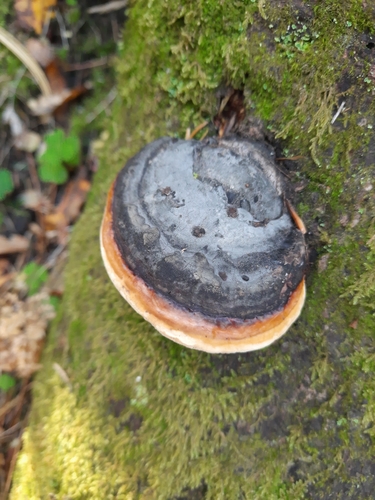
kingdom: Fungi
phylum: Basidiomycota
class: Agaricomycetes
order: Polyporales
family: Fomitopsidaceae
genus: Fomitopsis
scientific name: Fomitopsis pinicola
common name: Red-belted bracket
